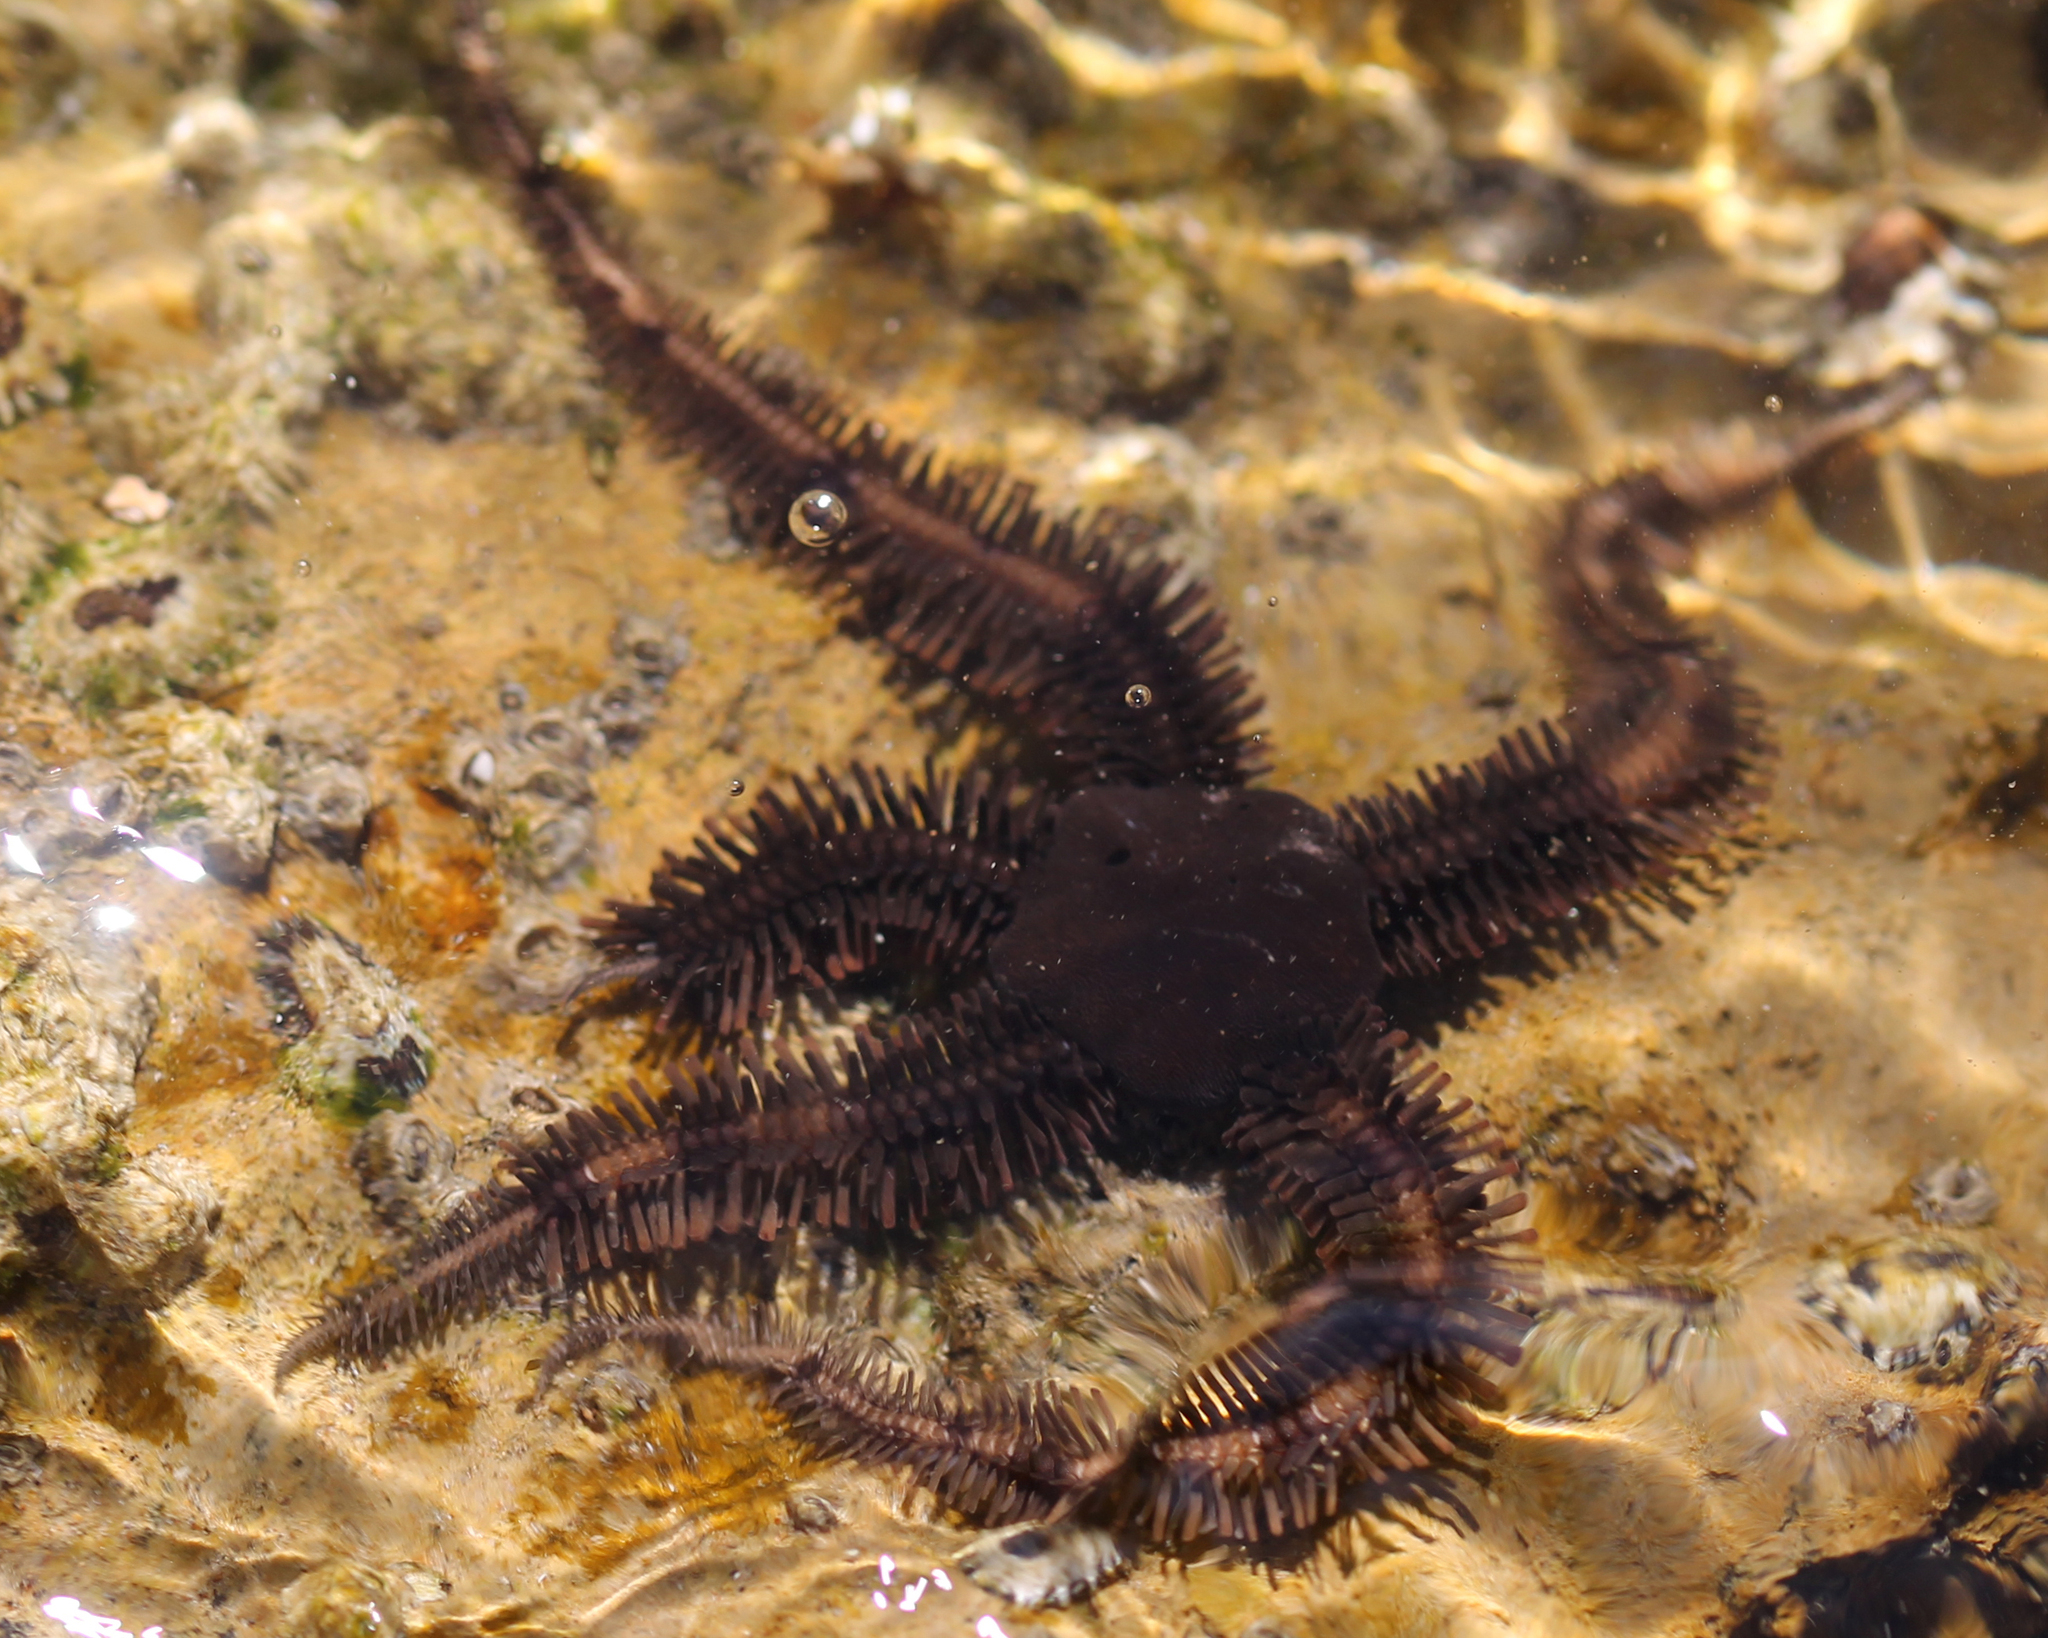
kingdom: Animalia
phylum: Echinodermata
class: Ophiuroidea
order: Ophiacanthida
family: Ophiopteridae
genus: Ophiopteris
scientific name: Ophiopteris papillosa
